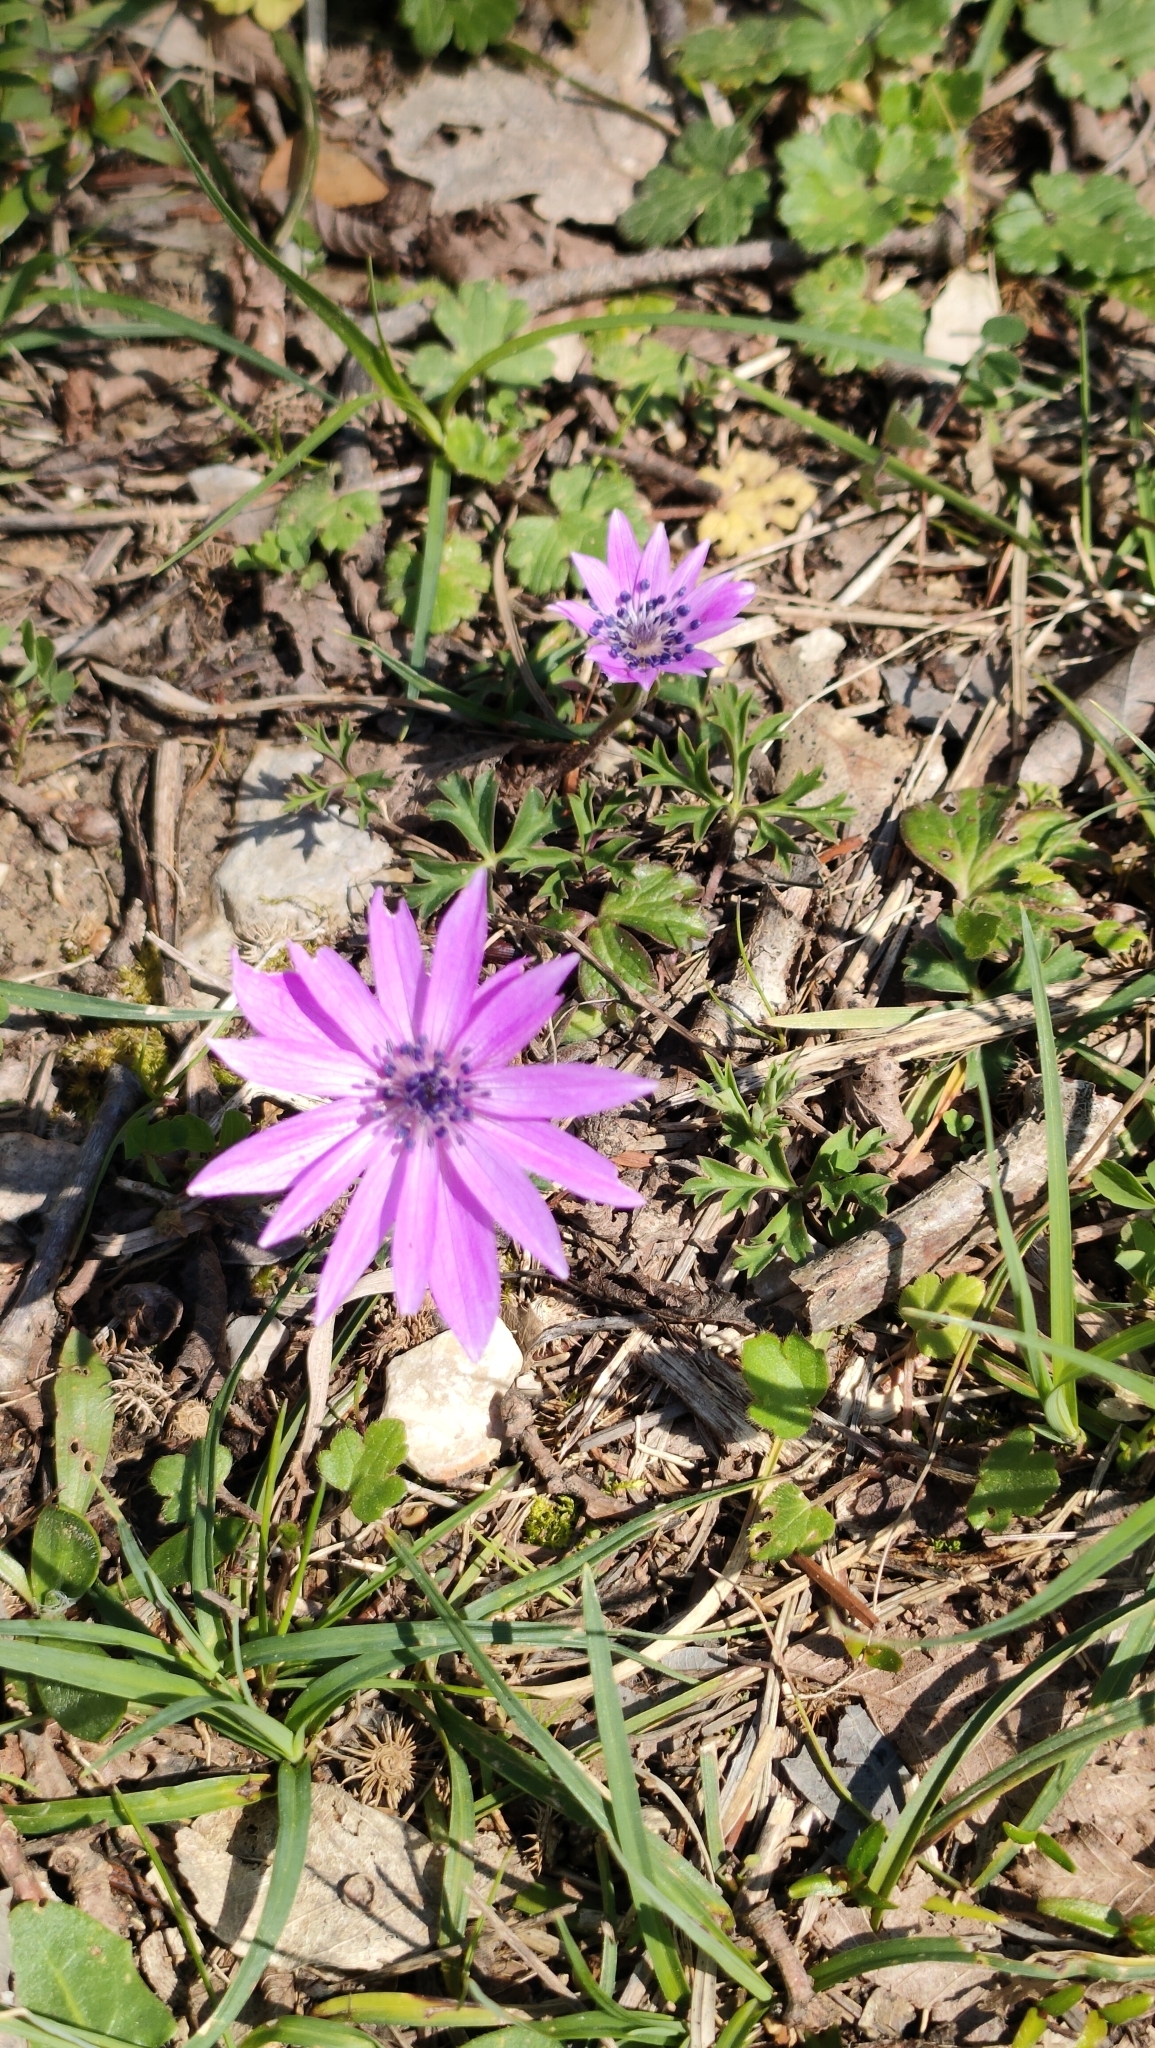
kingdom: Plantae
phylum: Tracheophyta
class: Magnoliopsida
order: Ranunculales
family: Ranunculaceae
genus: Anemone
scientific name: Anemone hortensis
